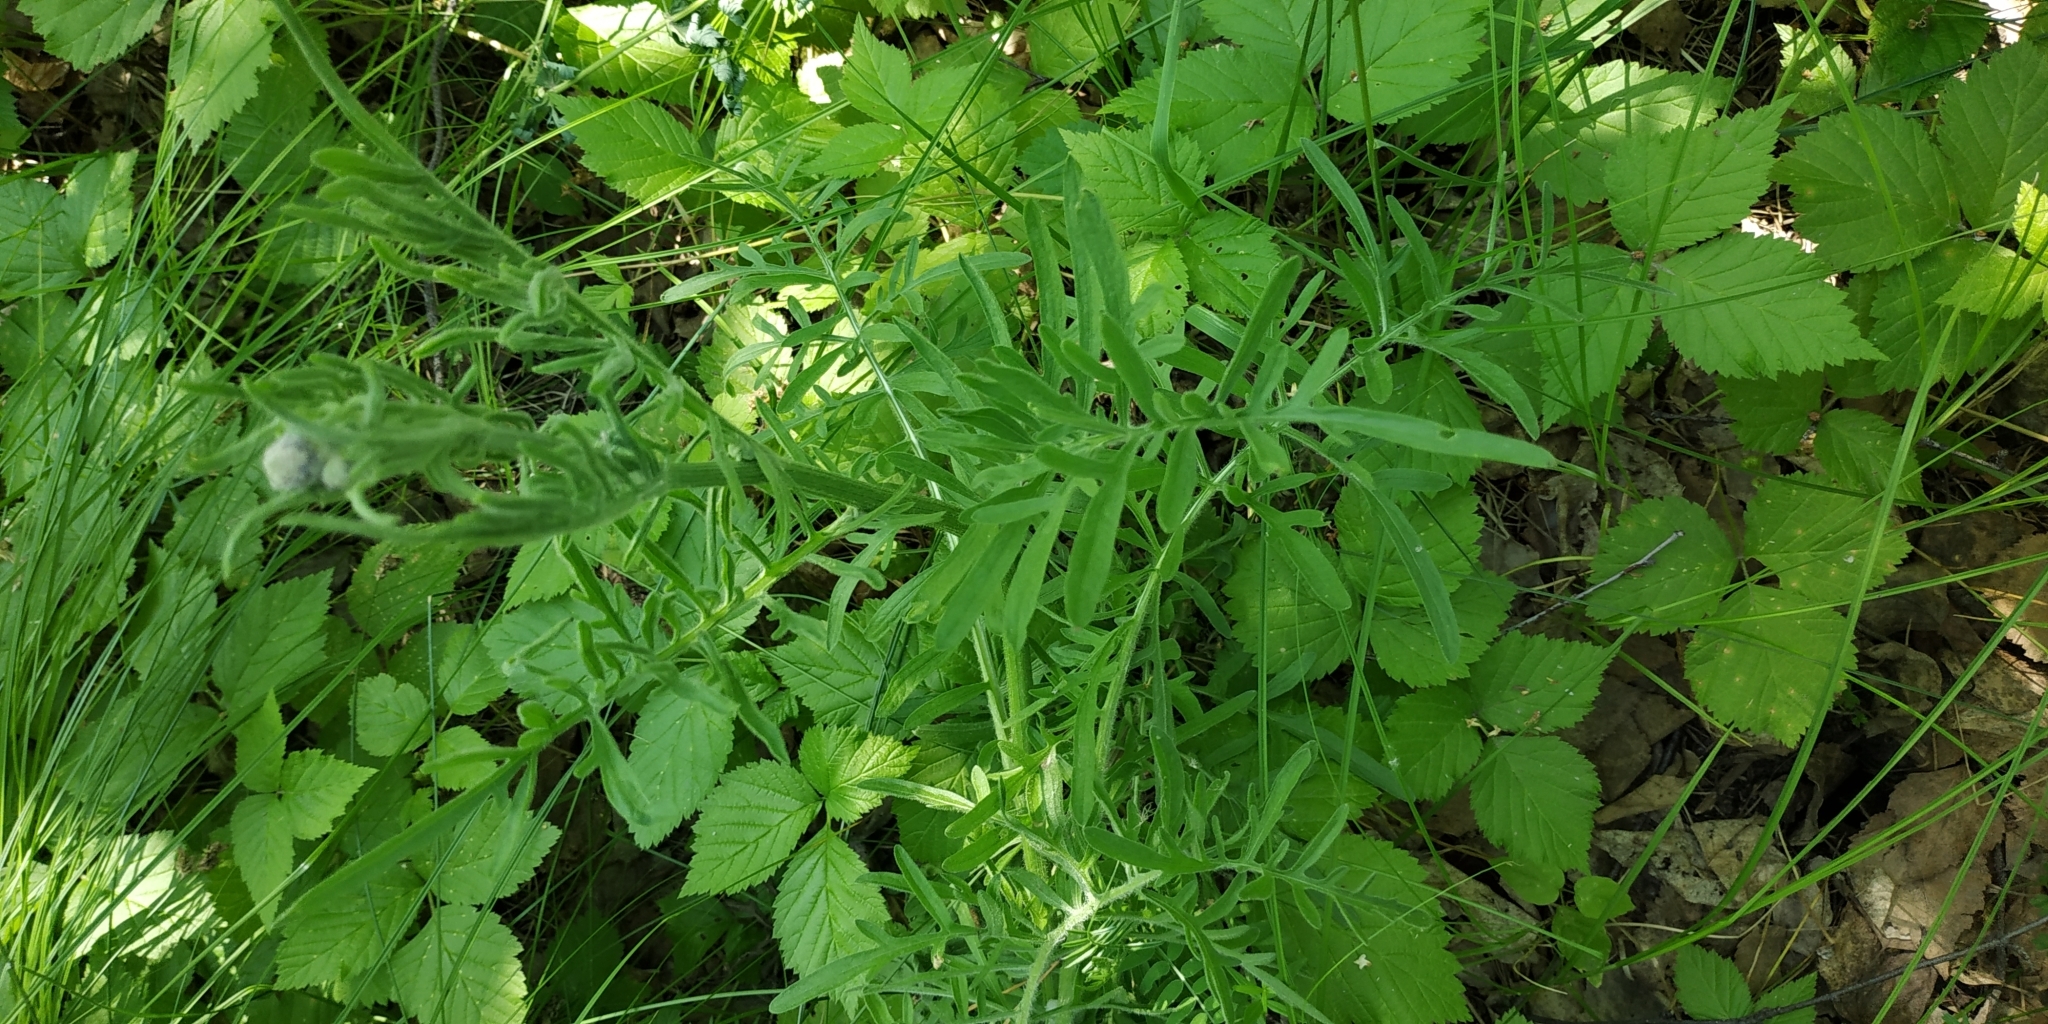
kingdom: Plantae
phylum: Tracheophyta
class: Magnoliopsida
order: Dipsacales
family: Caprifoliaceae
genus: Knautia
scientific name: Knautia arvensis
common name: Field scabiosa
